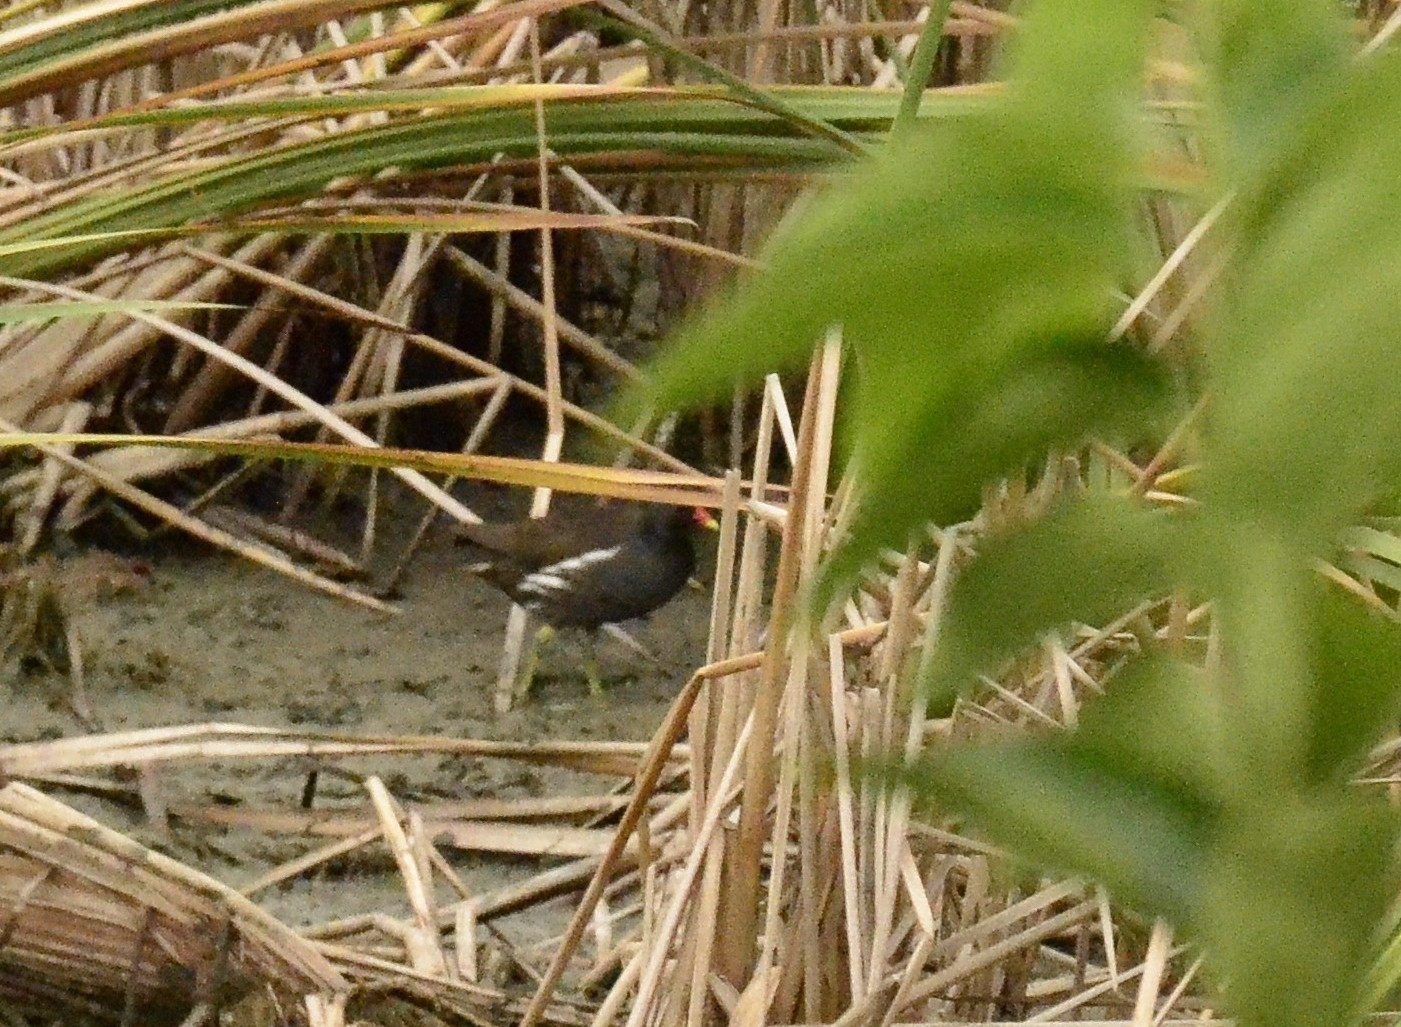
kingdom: Animalia
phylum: Chordata
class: Aves
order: Gruiformes
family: Rallidae
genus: Gallinula
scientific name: Gallinula chloropus
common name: Common moorhen
